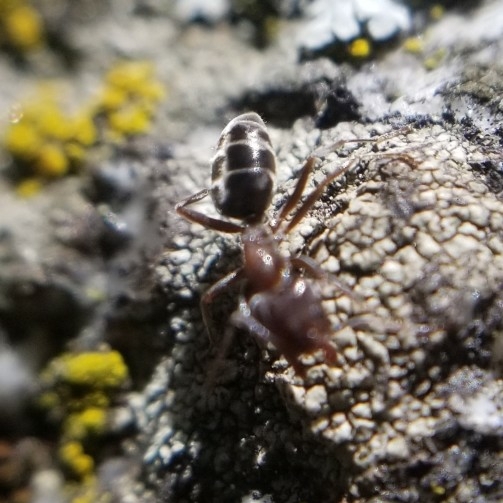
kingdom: Animalia
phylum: Arthropoda
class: Insecta
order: Hymenoptera
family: Formicidae
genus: Liometopum
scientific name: Liometopum occidentale
